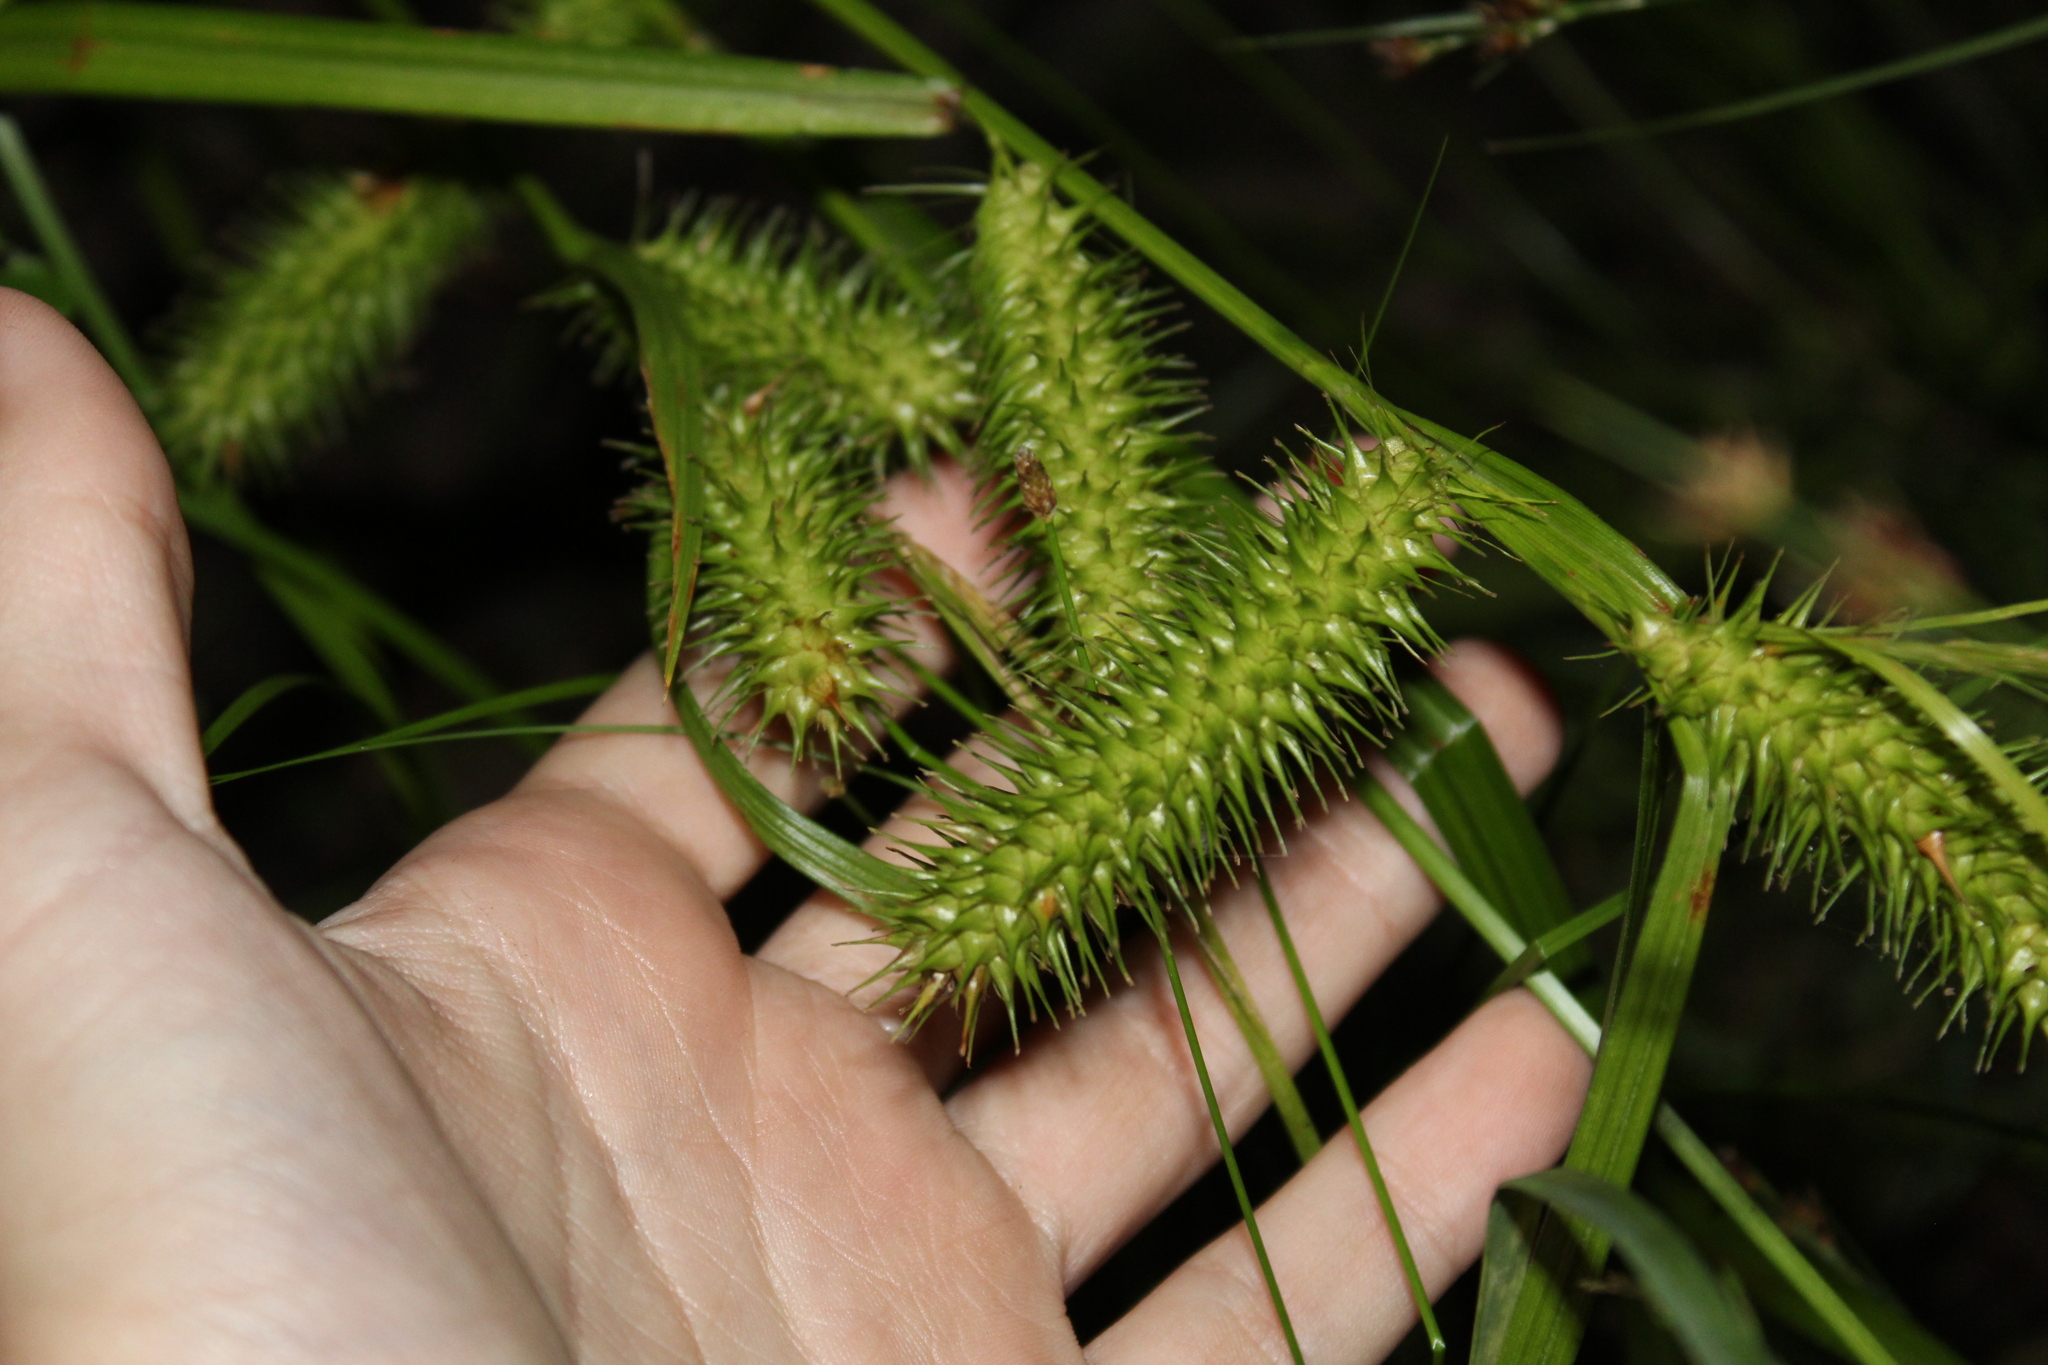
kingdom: Plantae
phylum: Tracheophyta
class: Liliopsida
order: Poales
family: Cyperaceae
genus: Carex
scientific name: Carex lurida
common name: Sallow sedge
